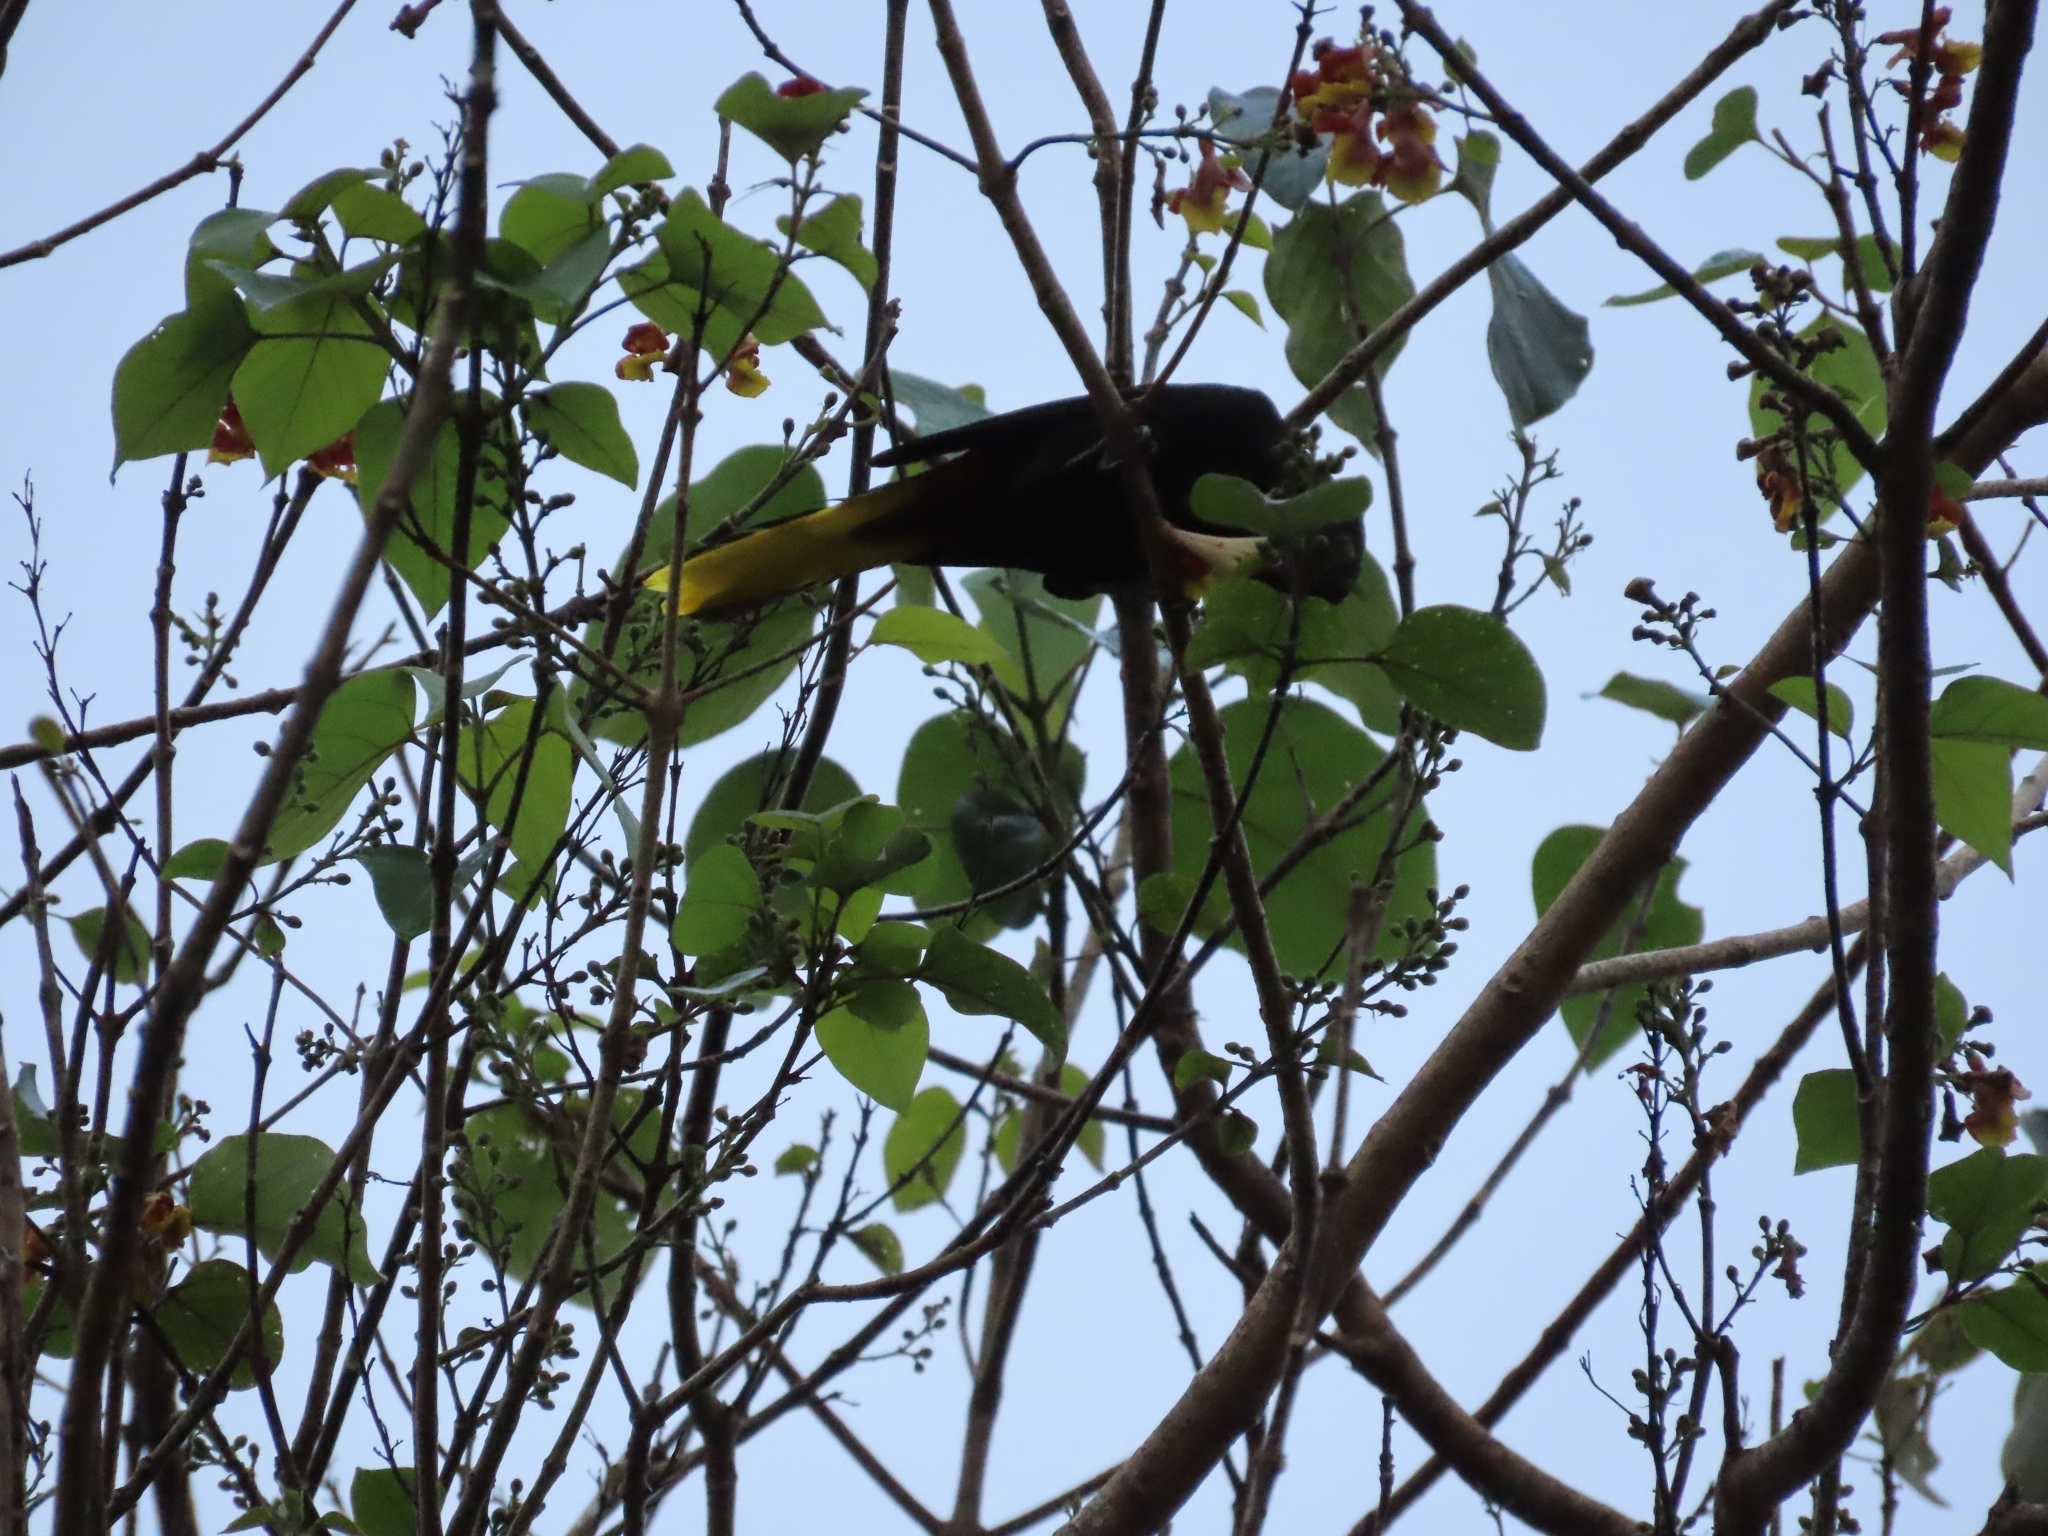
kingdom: Animalia
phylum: Chordata
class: Aves
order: Passeriformes
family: Icteridae
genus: Psarocolius
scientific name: Psarocolius decumanus
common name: Crested oropendola
